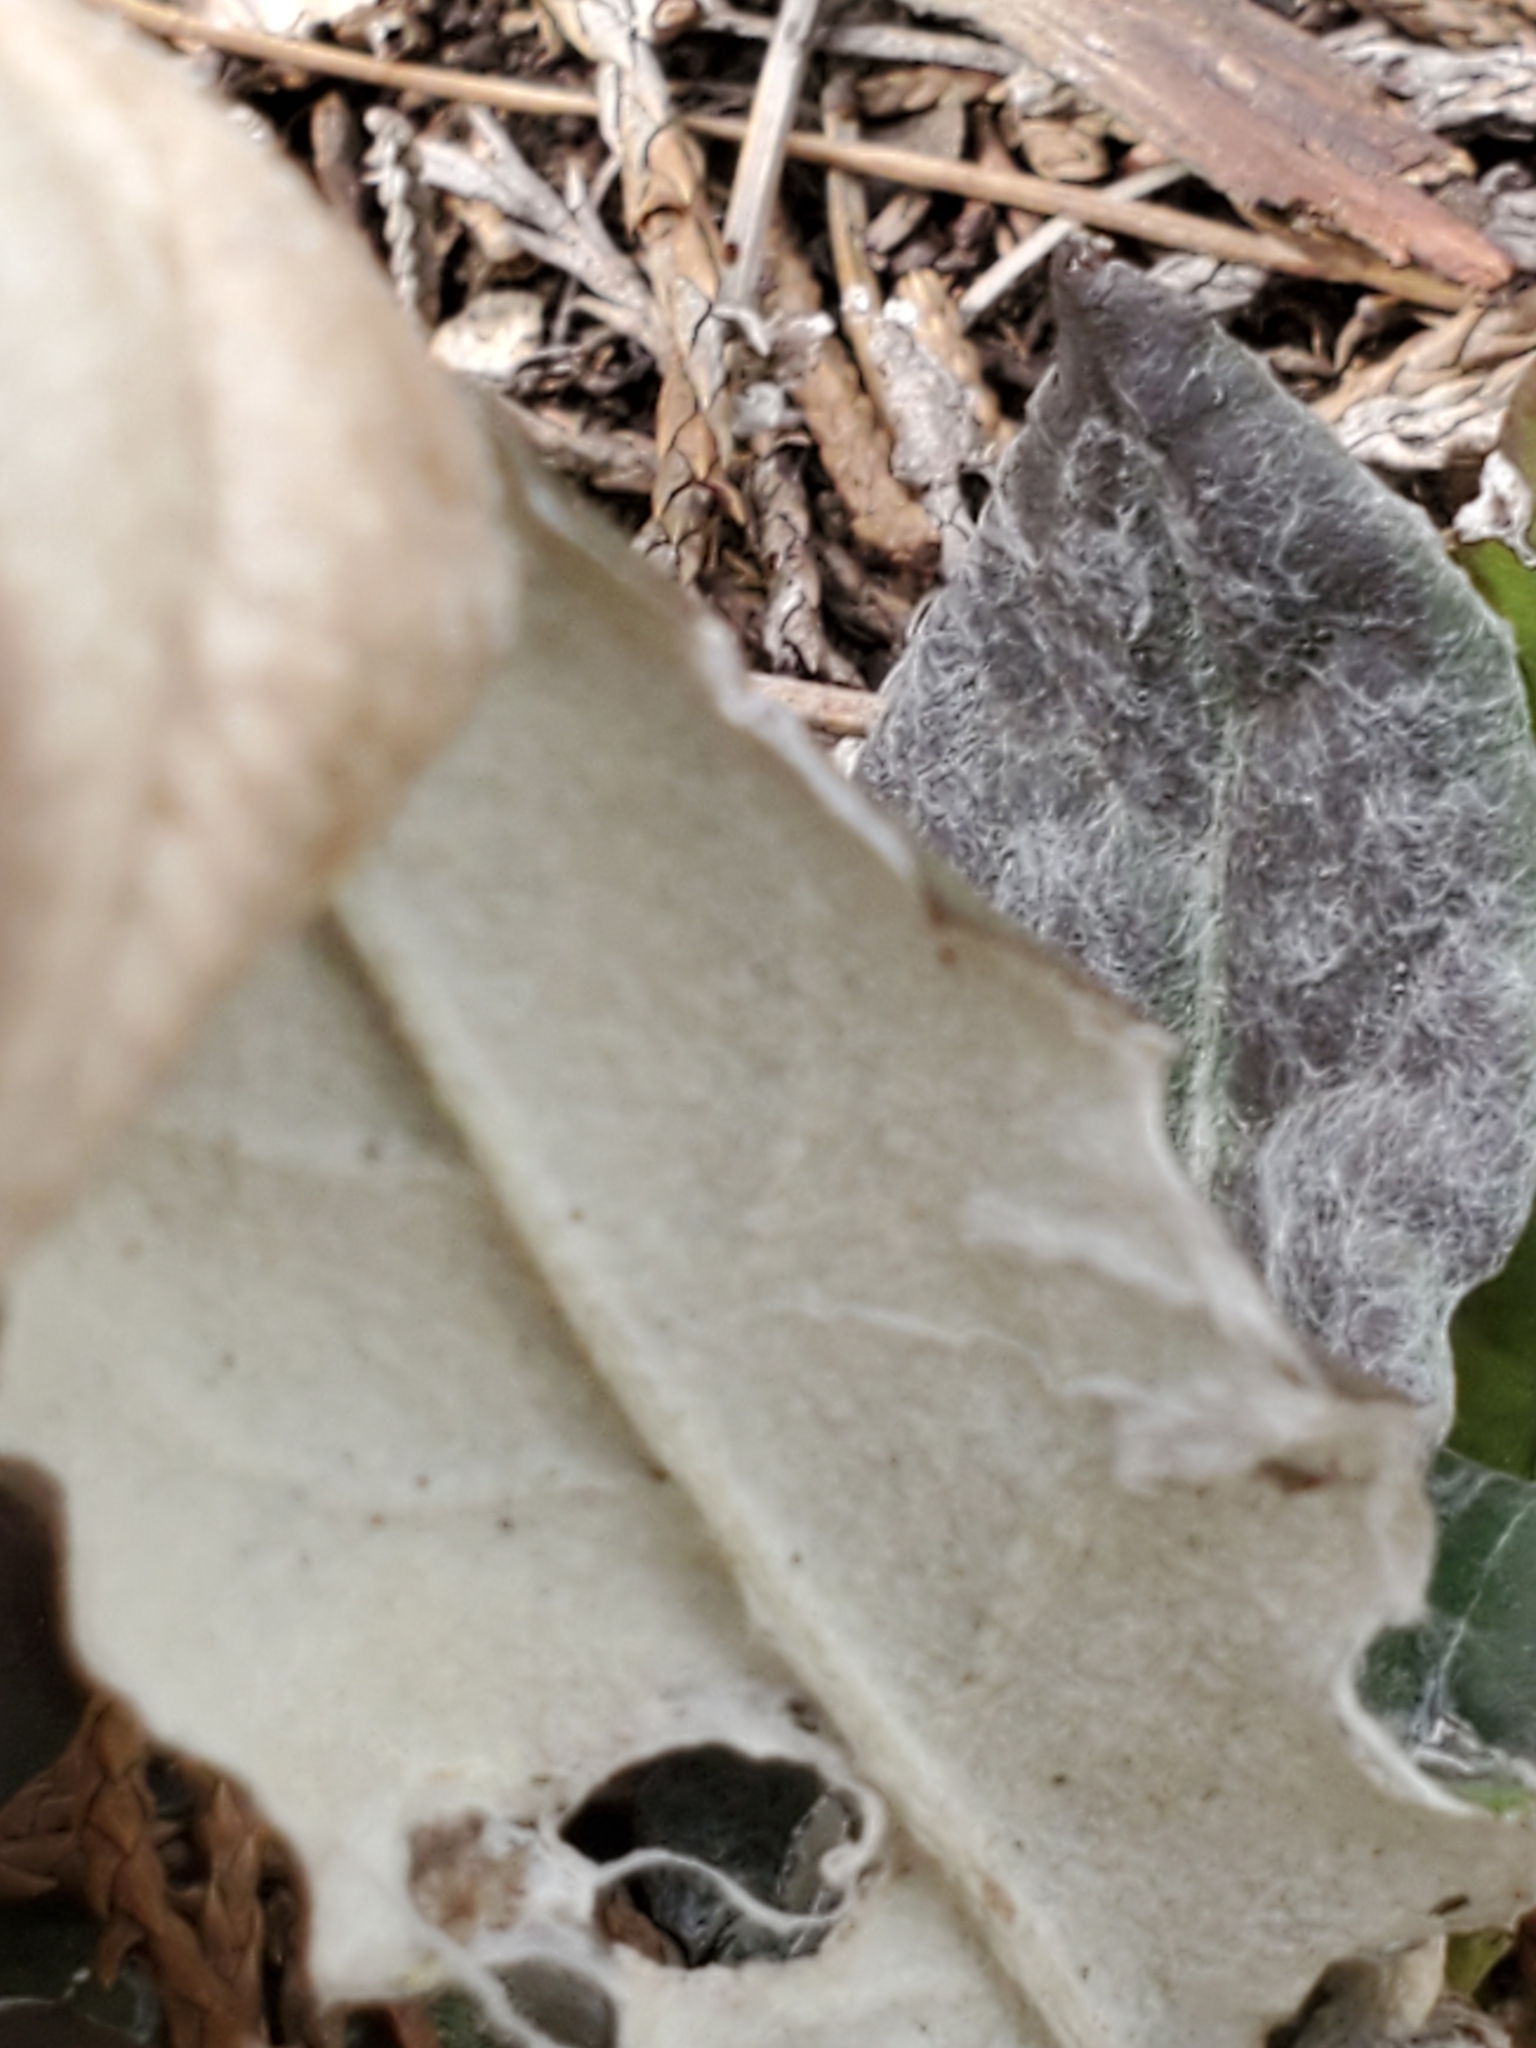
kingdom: Plantae
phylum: Tracheophyta
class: Magnoliopsida
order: Asterales
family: Asteraceae
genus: Chaptalia
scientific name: Chaptalia texana
